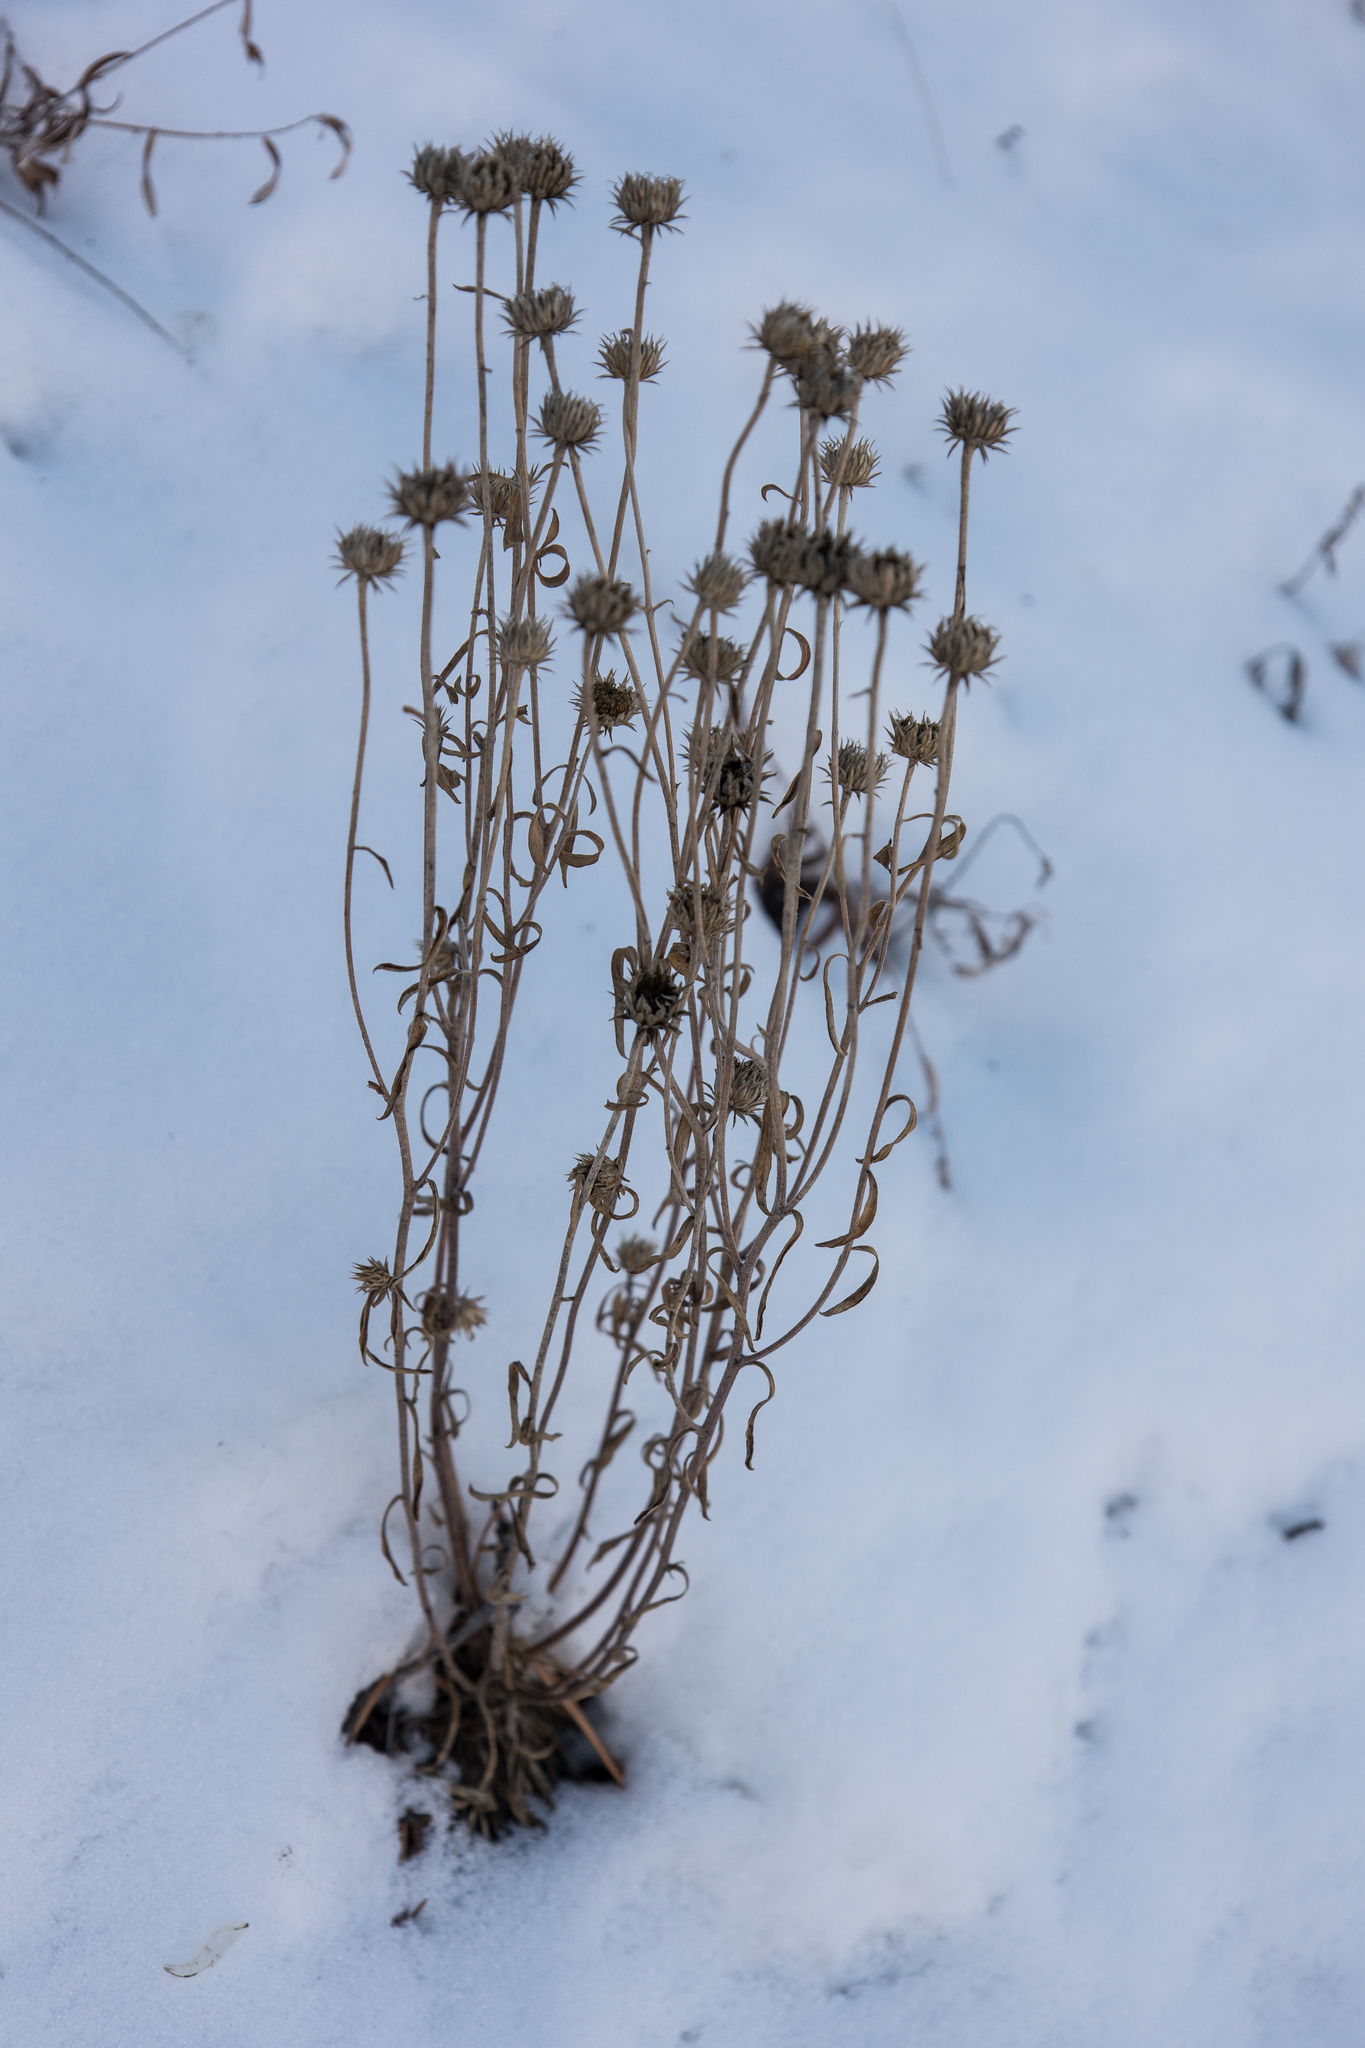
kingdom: Plantae
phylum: Tracheophyta
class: Magnoliopsida
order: Asterales
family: Asteraceae
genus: Townsendia
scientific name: Townsendia eximia
